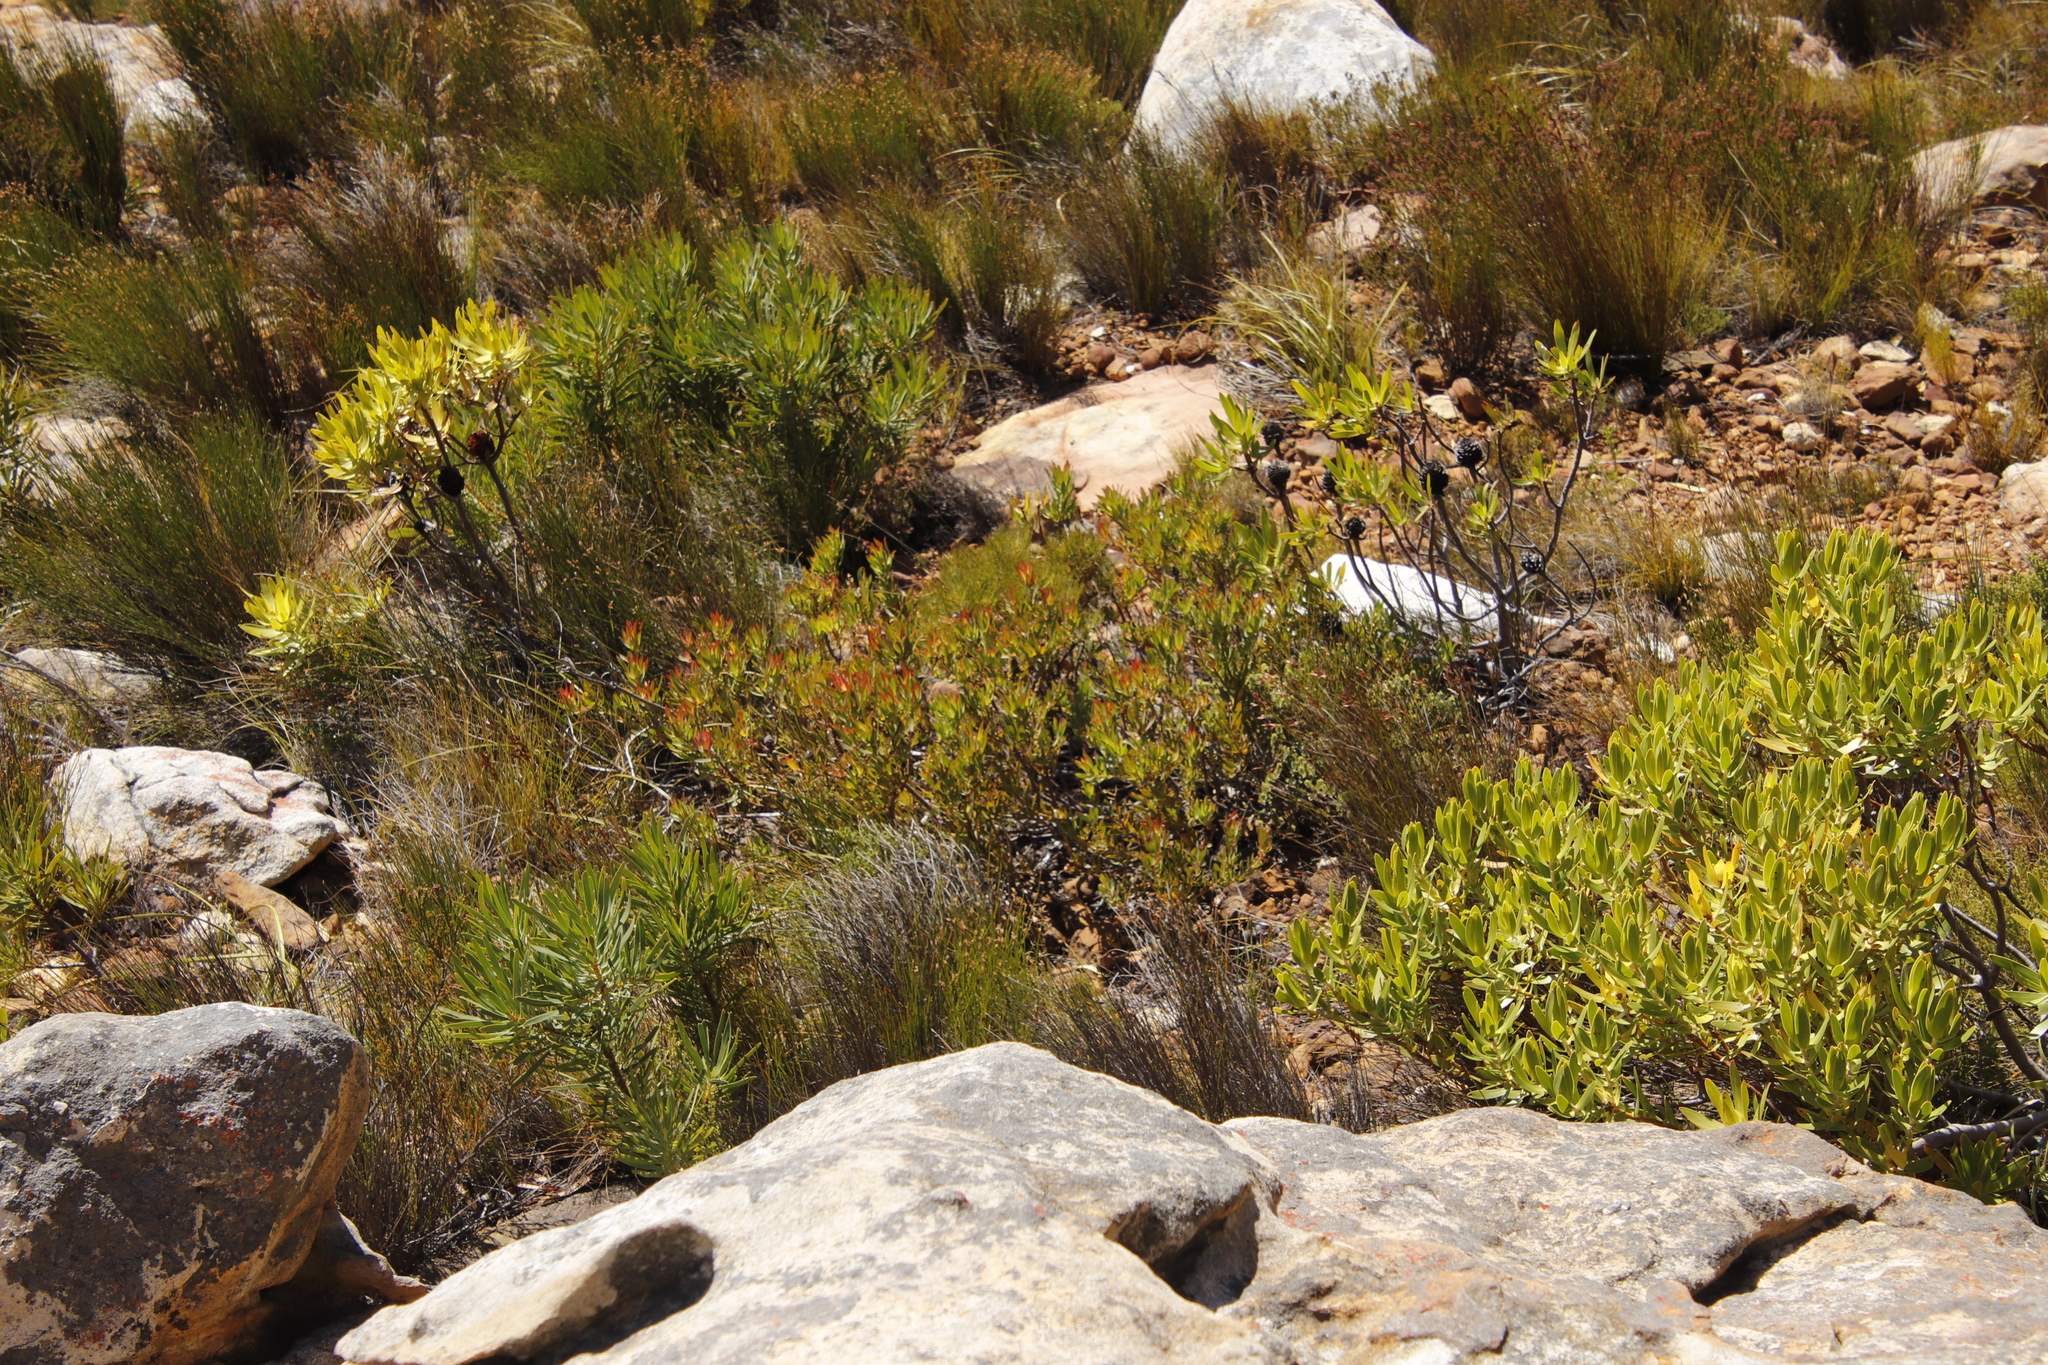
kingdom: Plantae
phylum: Tracheophyta
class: Magnoliopsida
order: Proteales
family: Proteaceae
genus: Leucadendron
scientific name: Leucadendron salignum
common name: Common sunshine conebush
